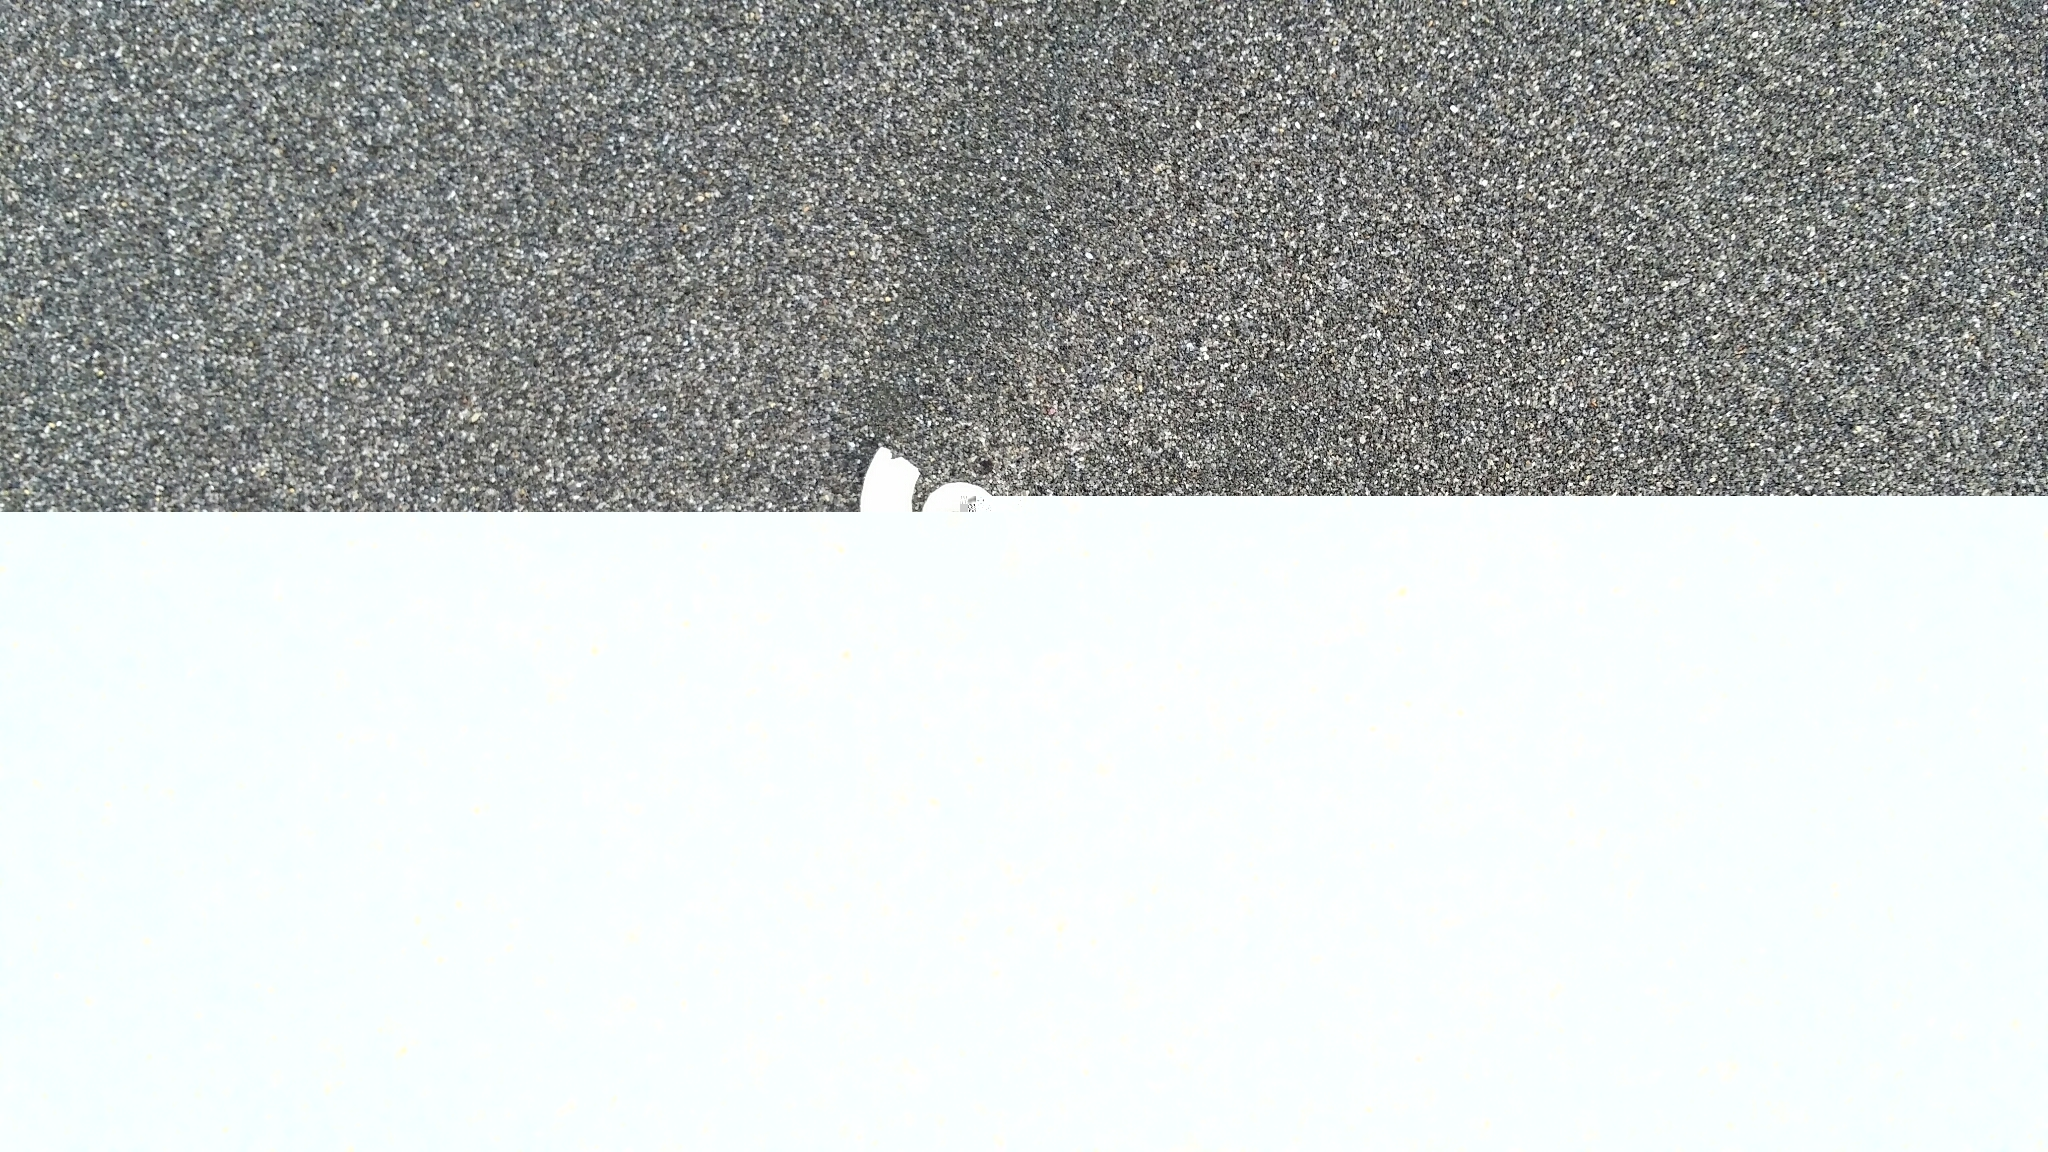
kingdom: Animalia
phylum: Mollusca
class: Cephalopoda
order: Spirulida
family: Spirulidae
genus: Spirula
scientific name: Spirula spirula
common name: Ram's horn squid
